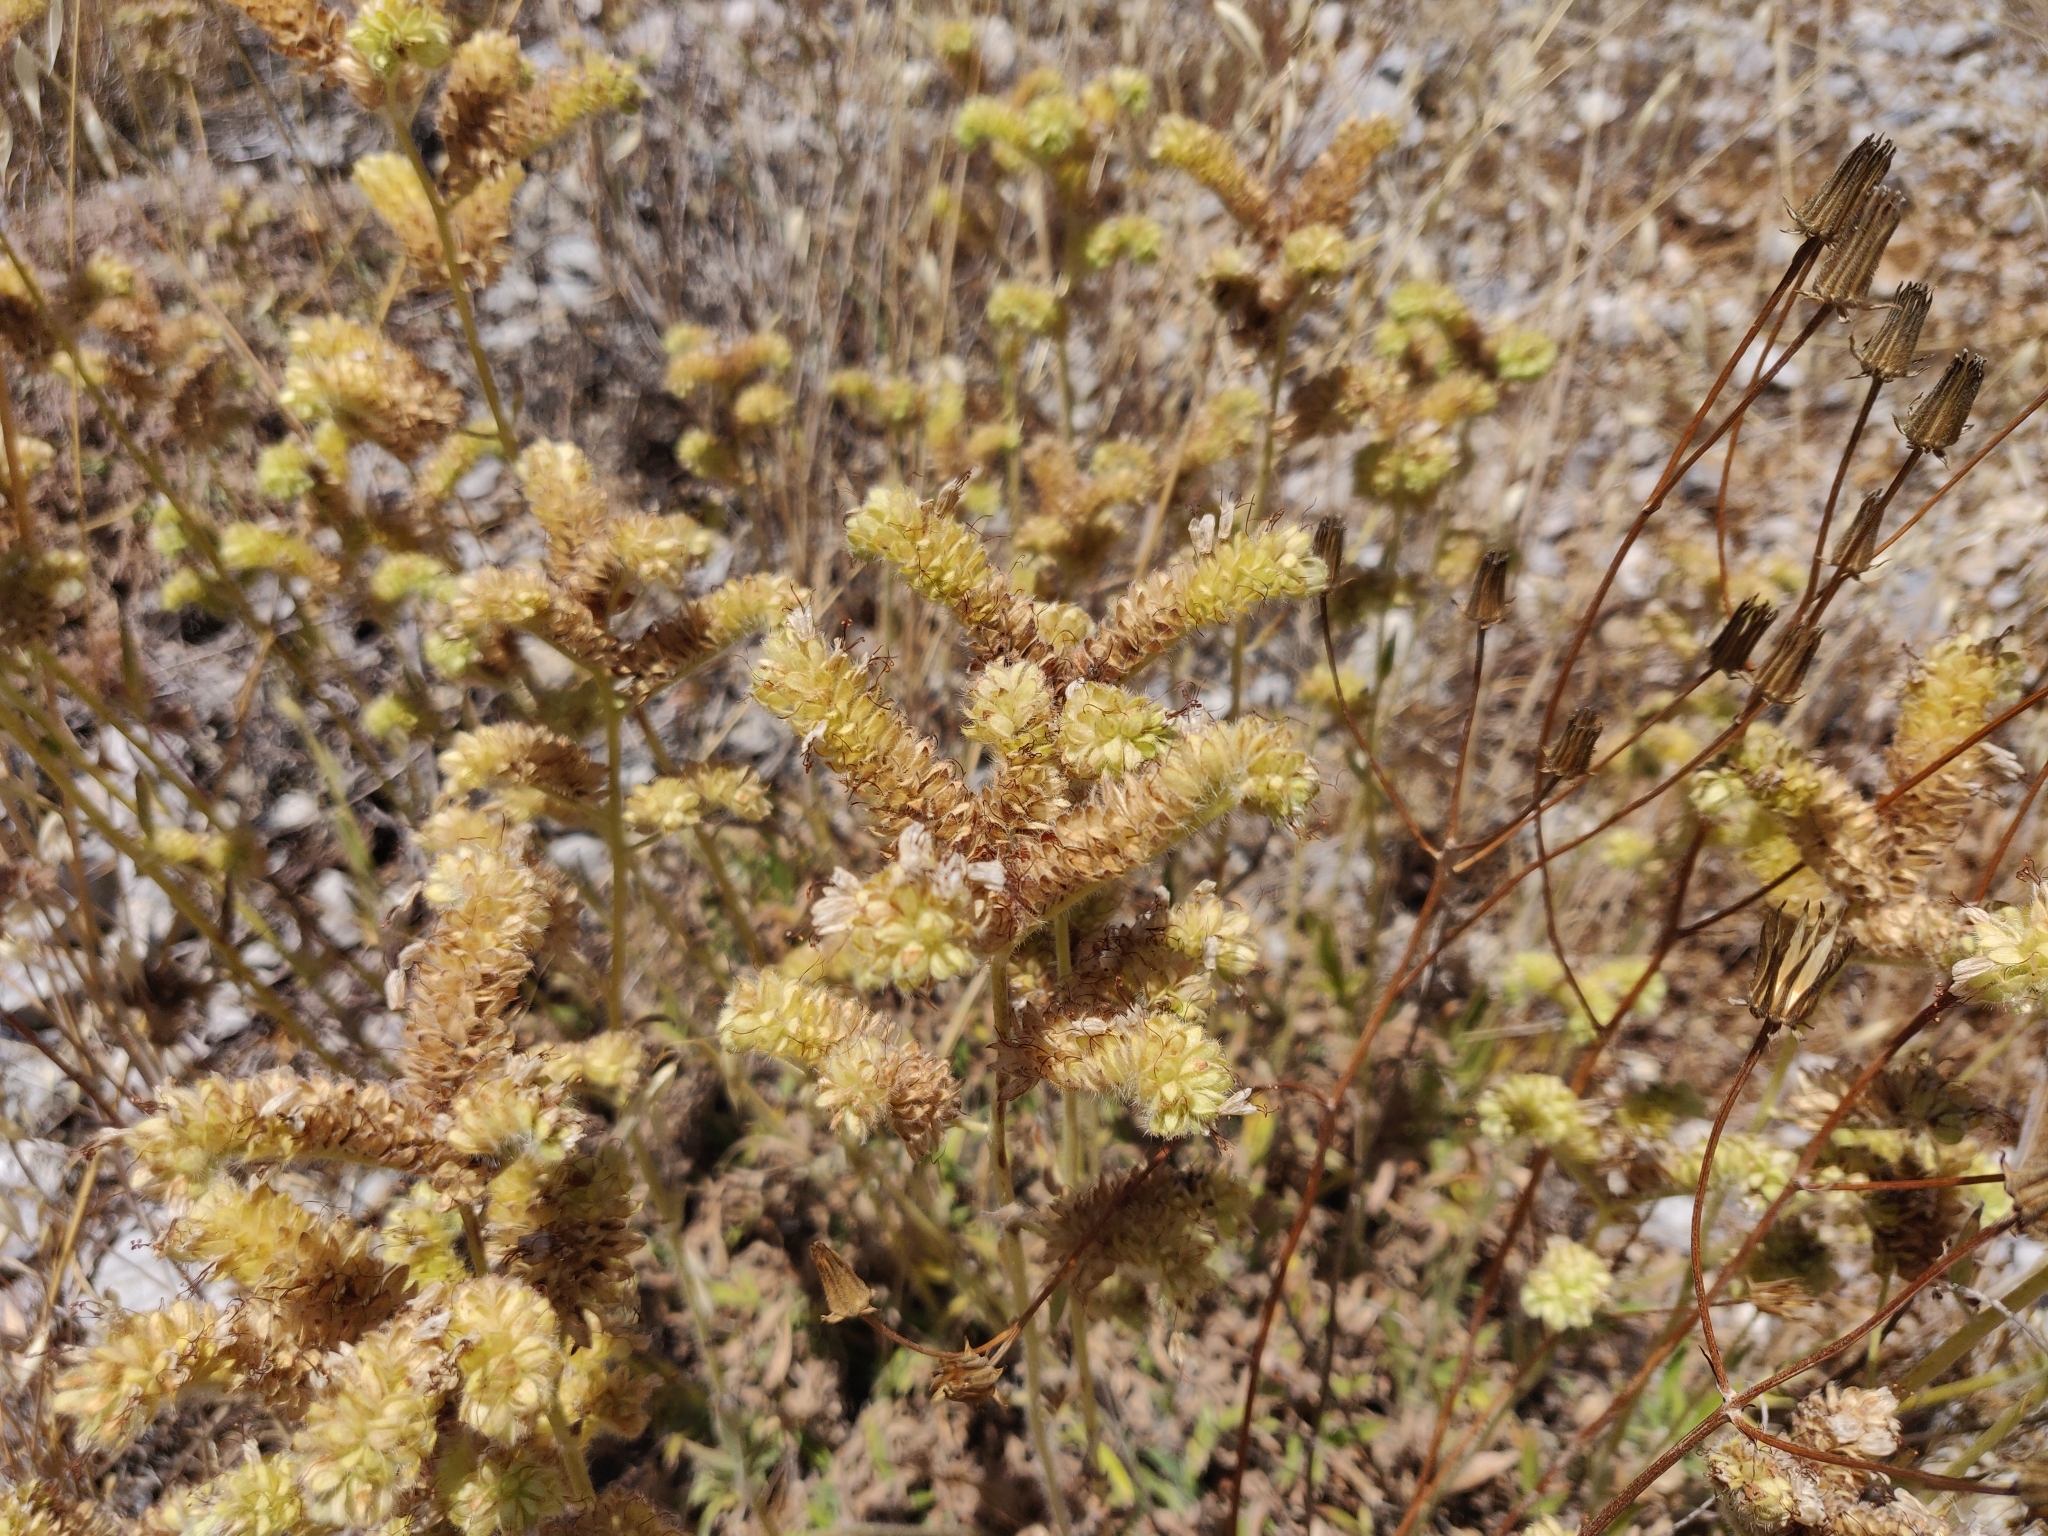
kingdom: Plantae
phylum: Tracheophyta
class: Magnoliopsida
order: Boraginales
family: Hydrophyllaceae
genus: Phacelia
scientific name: Phacelia imbricata
